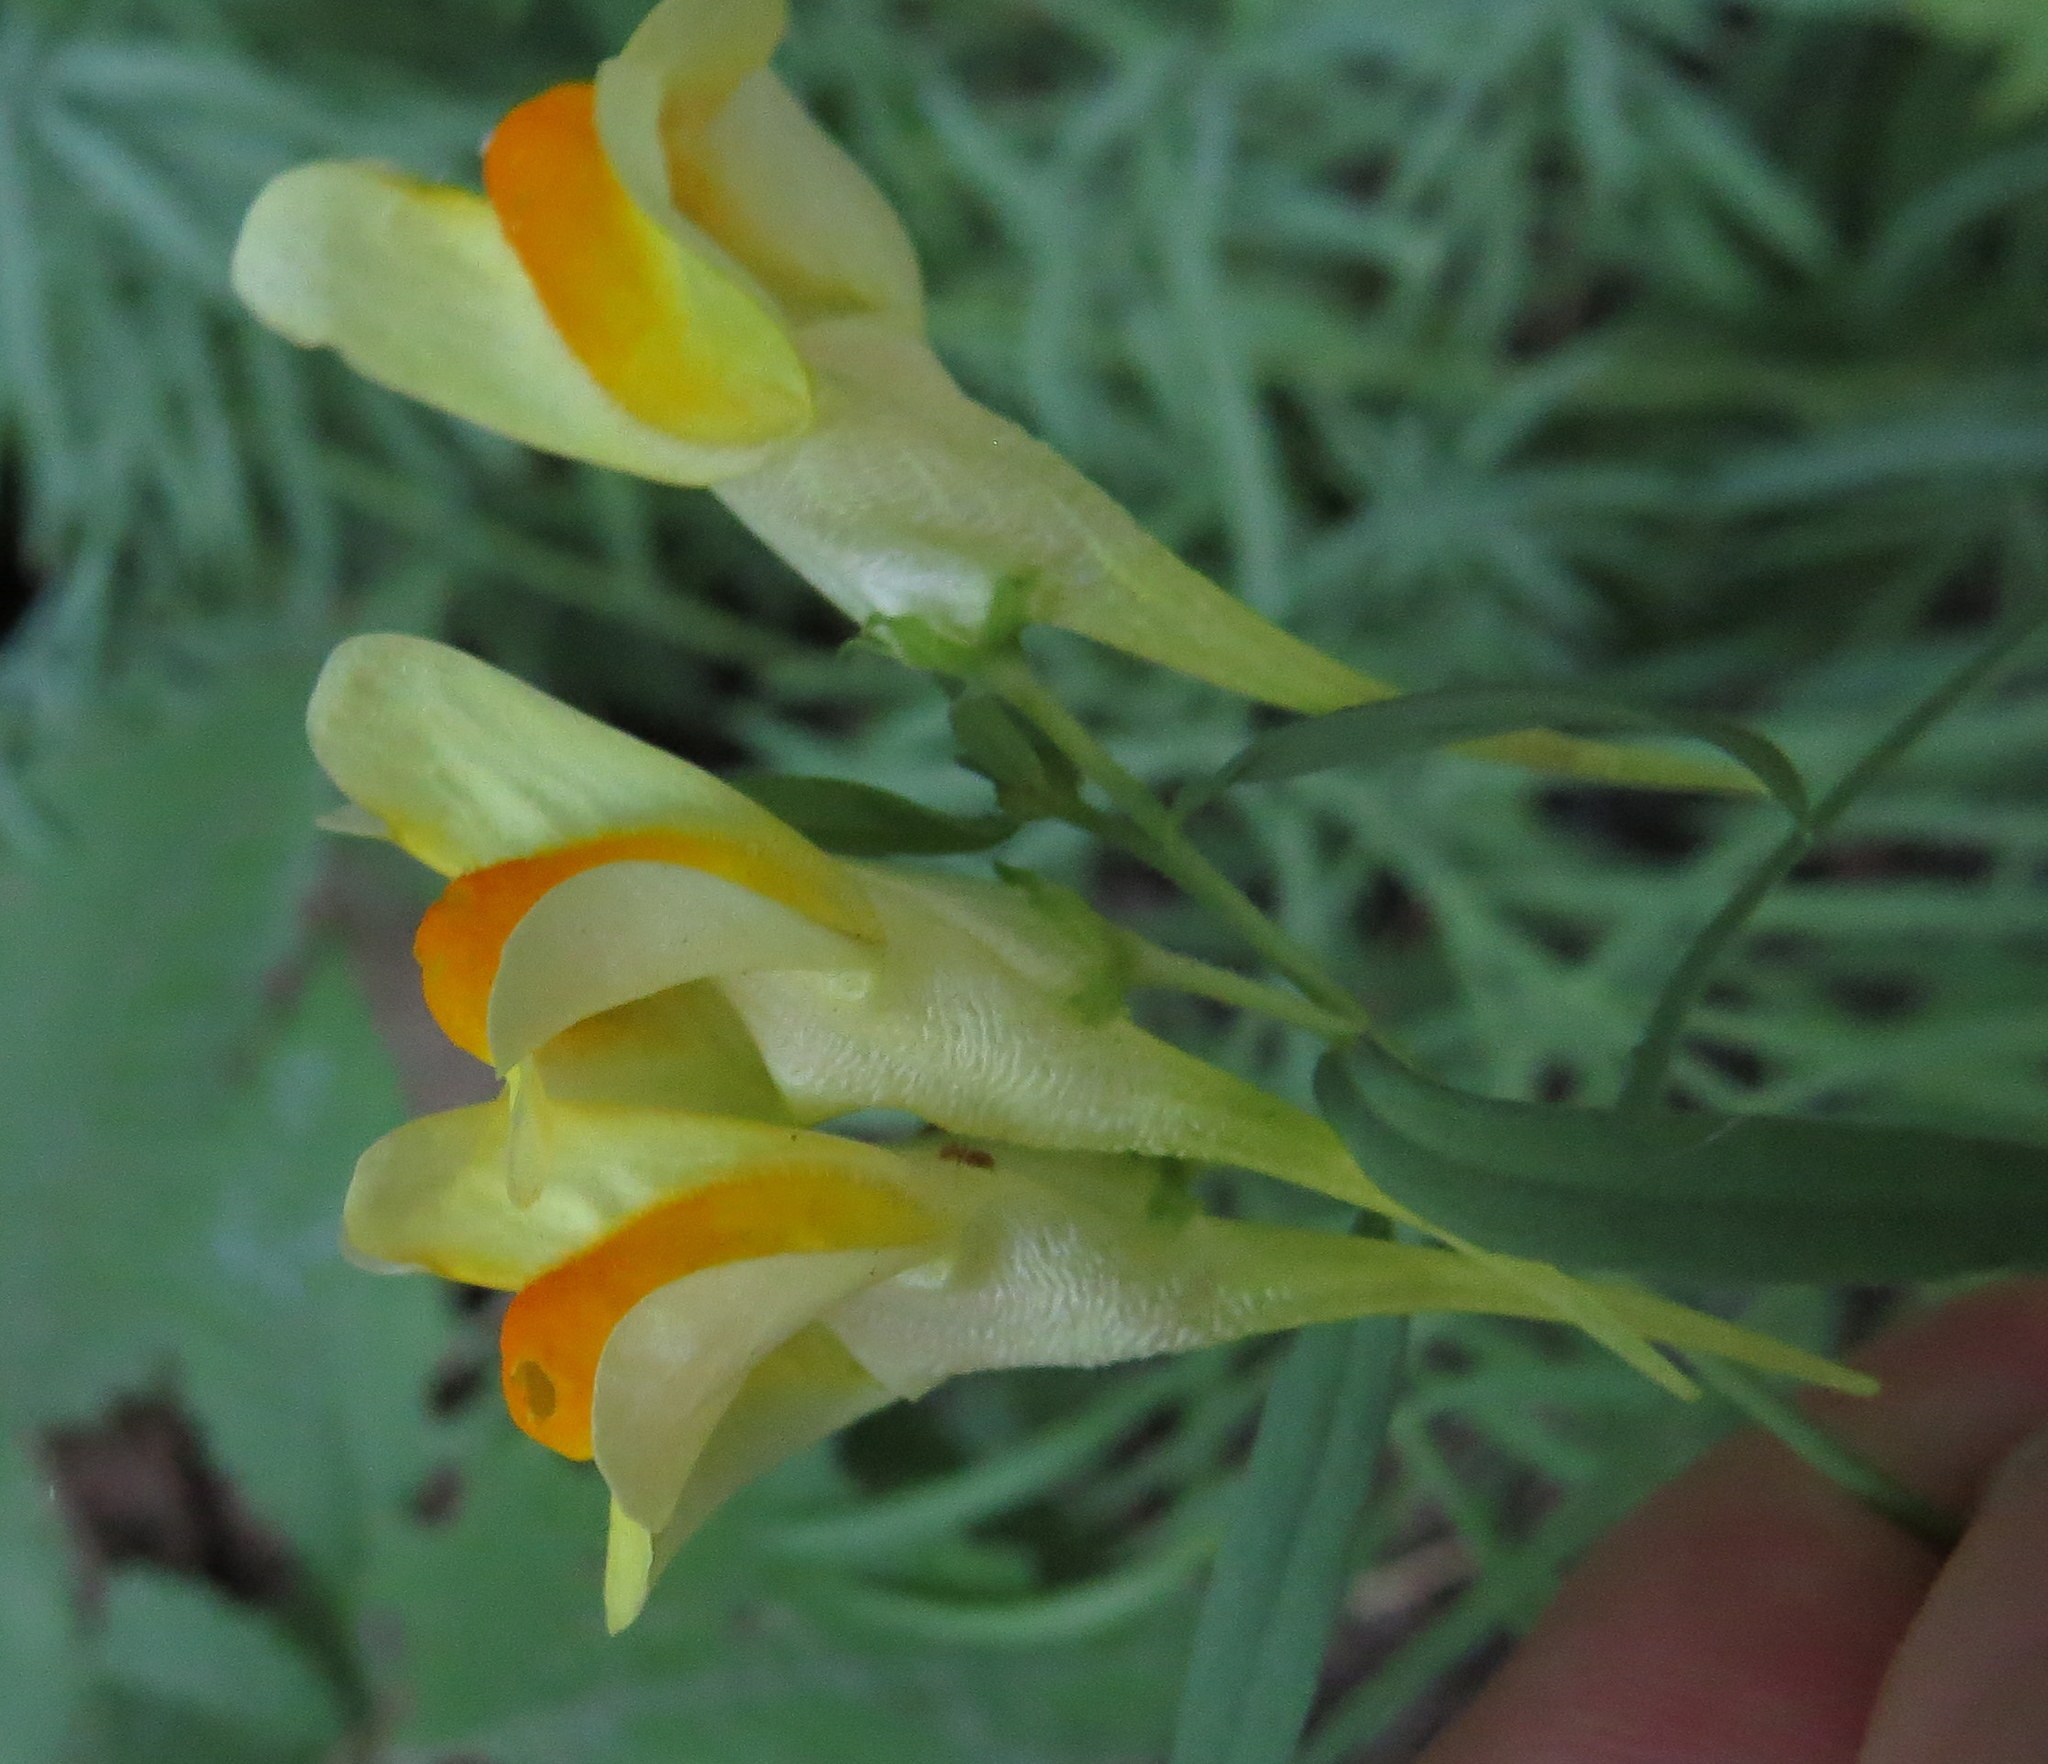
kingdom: Plantae
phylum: Tracheophyta
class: Magnoliopsida
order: Lamiales
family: Plantaginaceae
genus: Linaria
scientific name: Linaria vulgaris
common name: Butter and eggs
